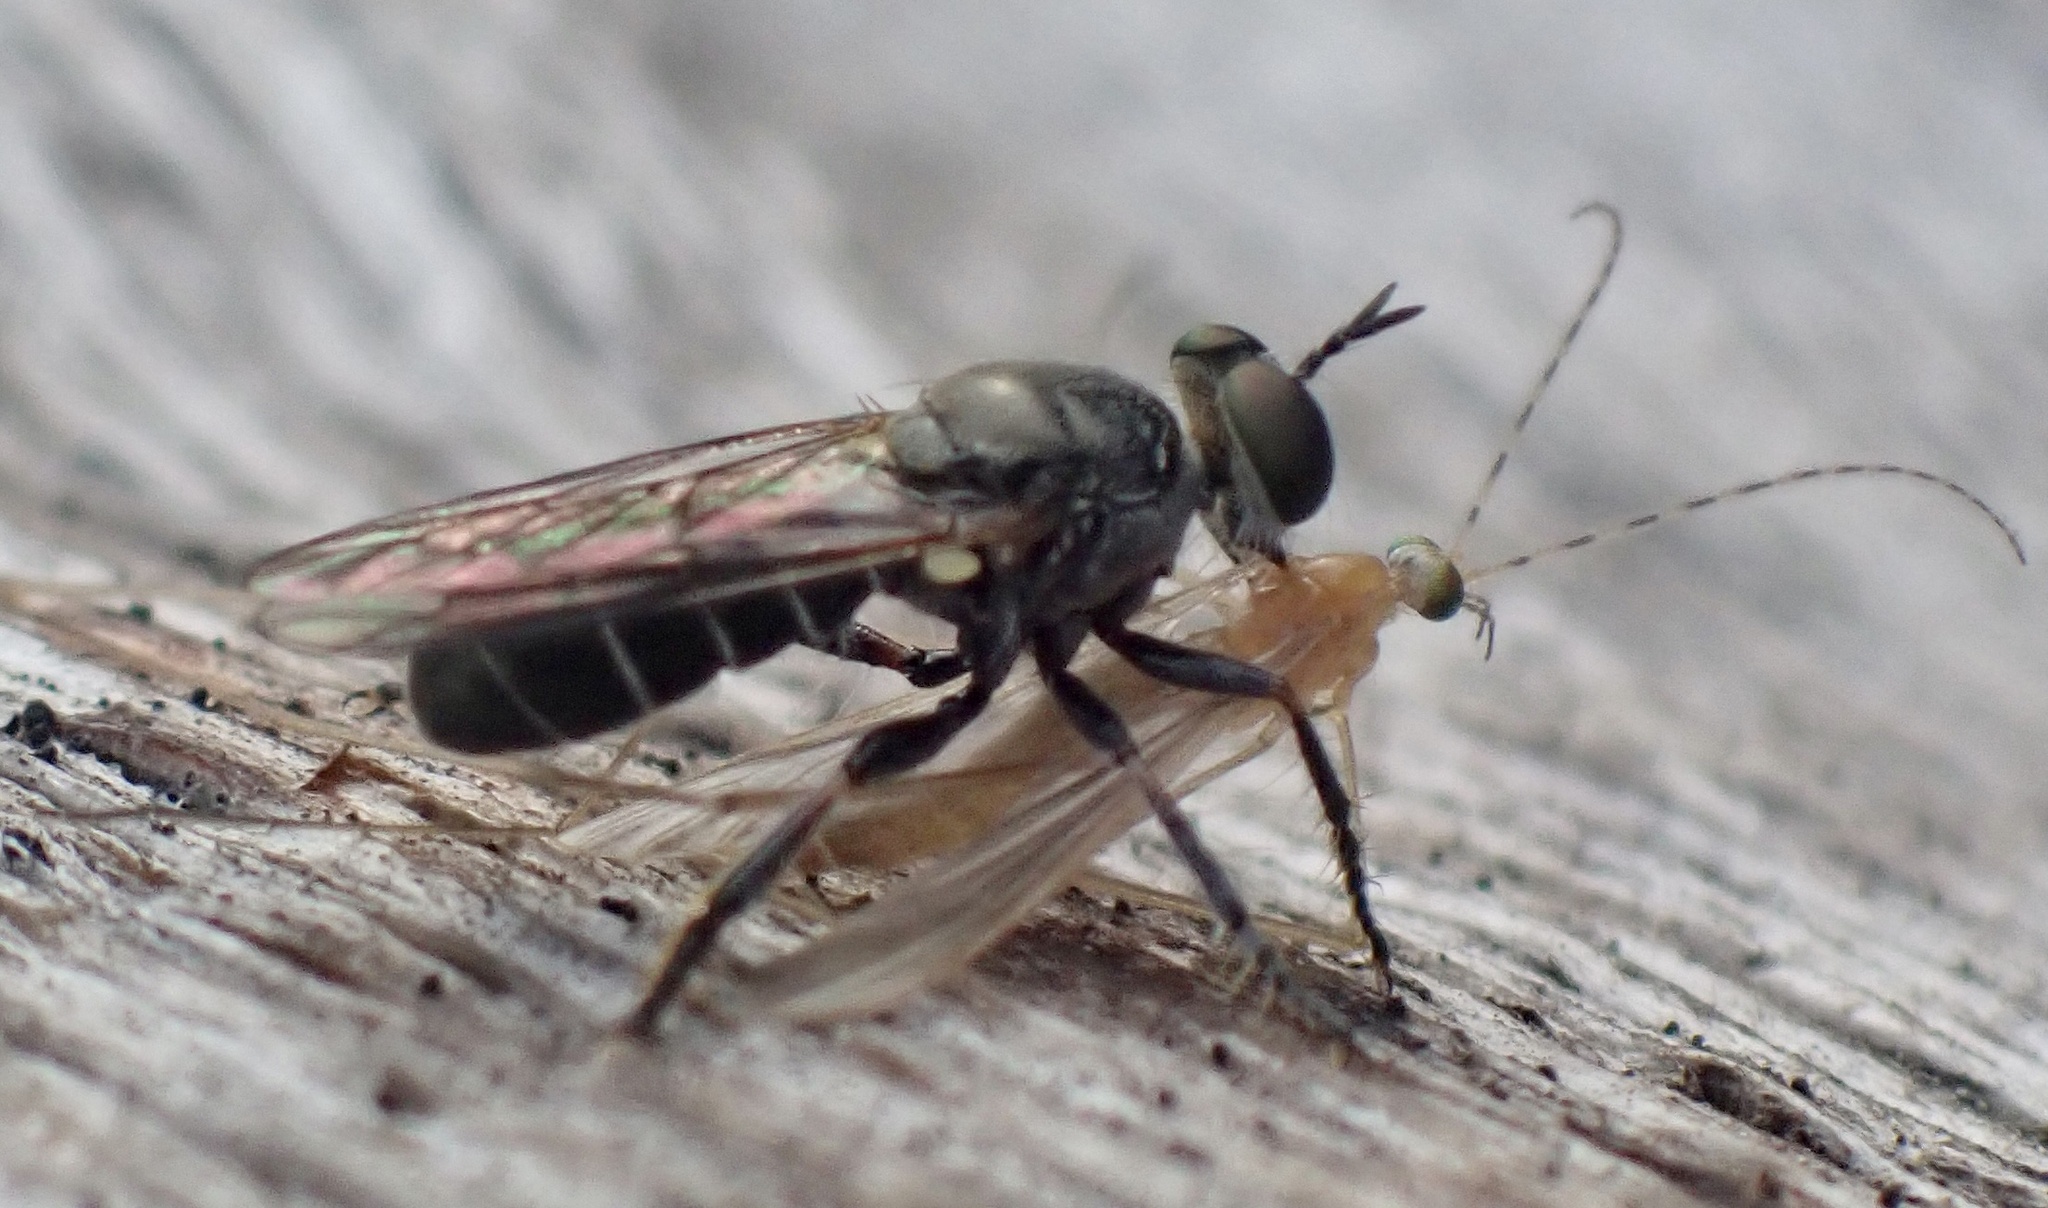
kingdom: Animalia
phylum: Arthropoda
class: Insecta
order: Diptera
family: Asilidae
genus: Atomosia
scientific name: Atomosia puella
